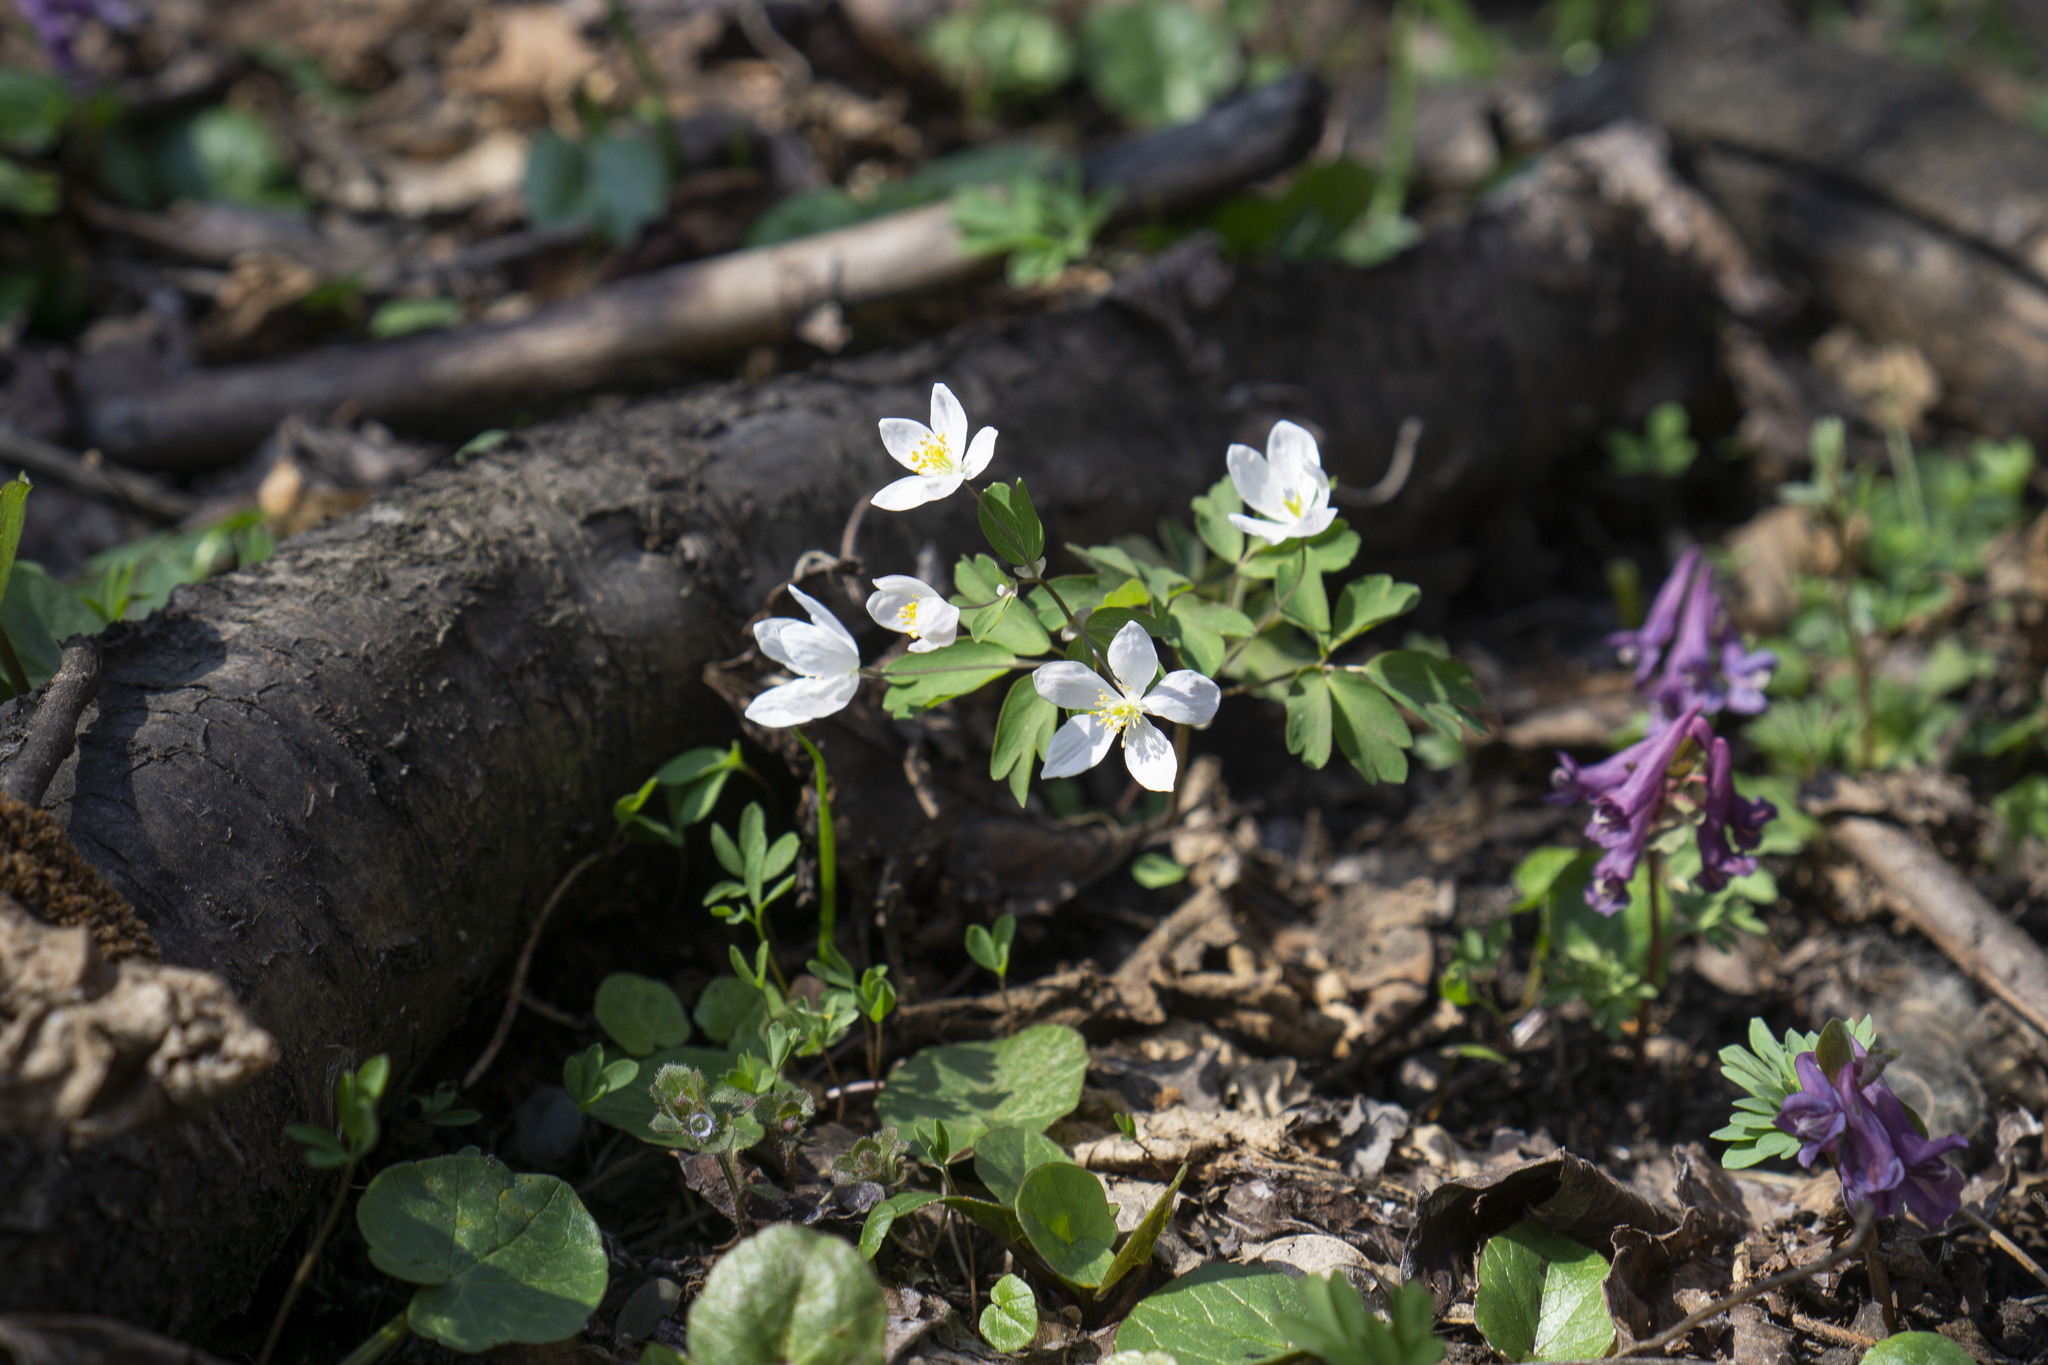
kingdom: Plantae
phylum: Tracheophyta
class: Magnoliopsida
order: Ranunculales
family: Ranunculaceae
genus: Isopyrum
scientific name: Isopyrum thalictroides
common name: Isopyrum
